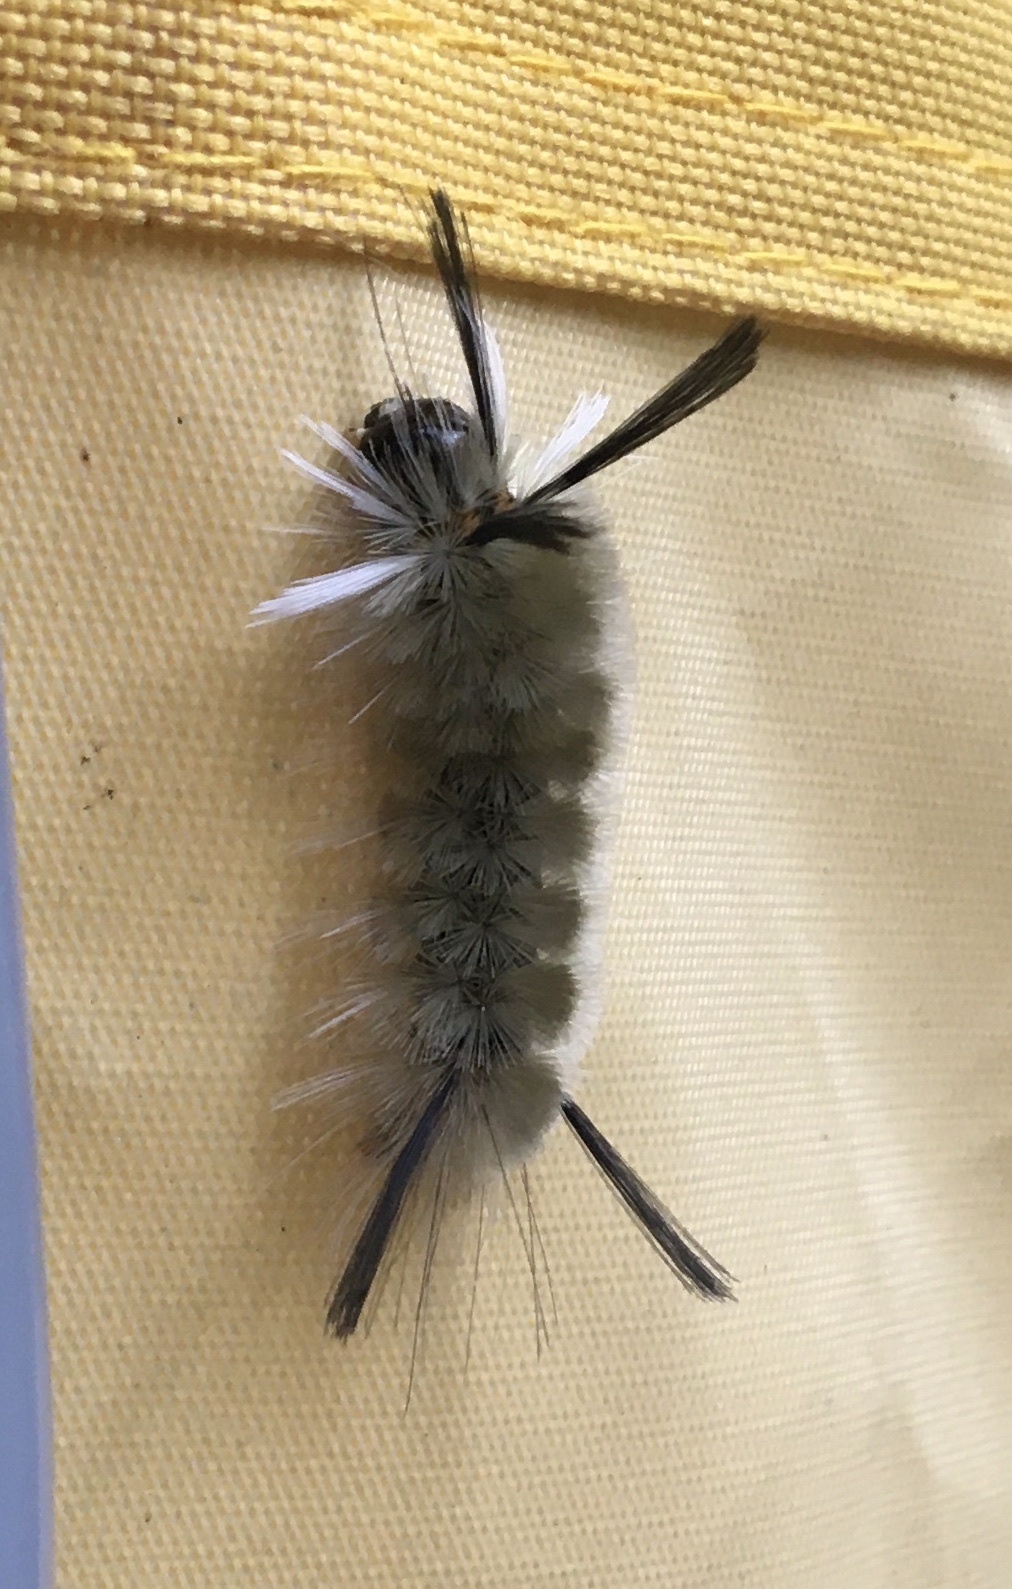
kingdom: Animalia
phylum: Arthropoda
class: Insecta
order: Lepidoptera
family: Erebidae
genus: Halysidota
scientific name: Halysidota tessellaris
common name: Banded tussock moth
